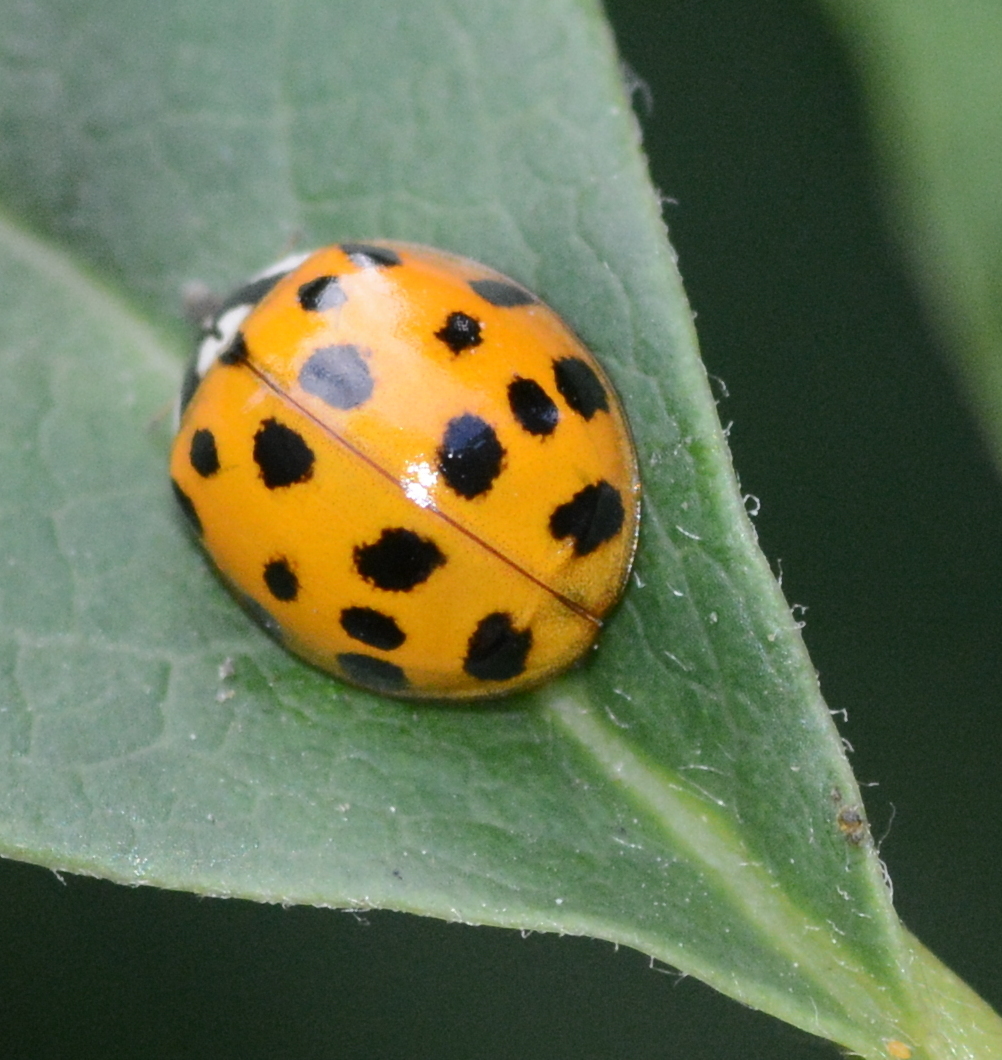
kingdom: Animalia
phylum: Arthropoda
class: Insecta
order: Coleoptera
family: Coccinellidae
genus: Harmonia
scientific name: Harmonia axyridis
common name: Harlequin ladybird
